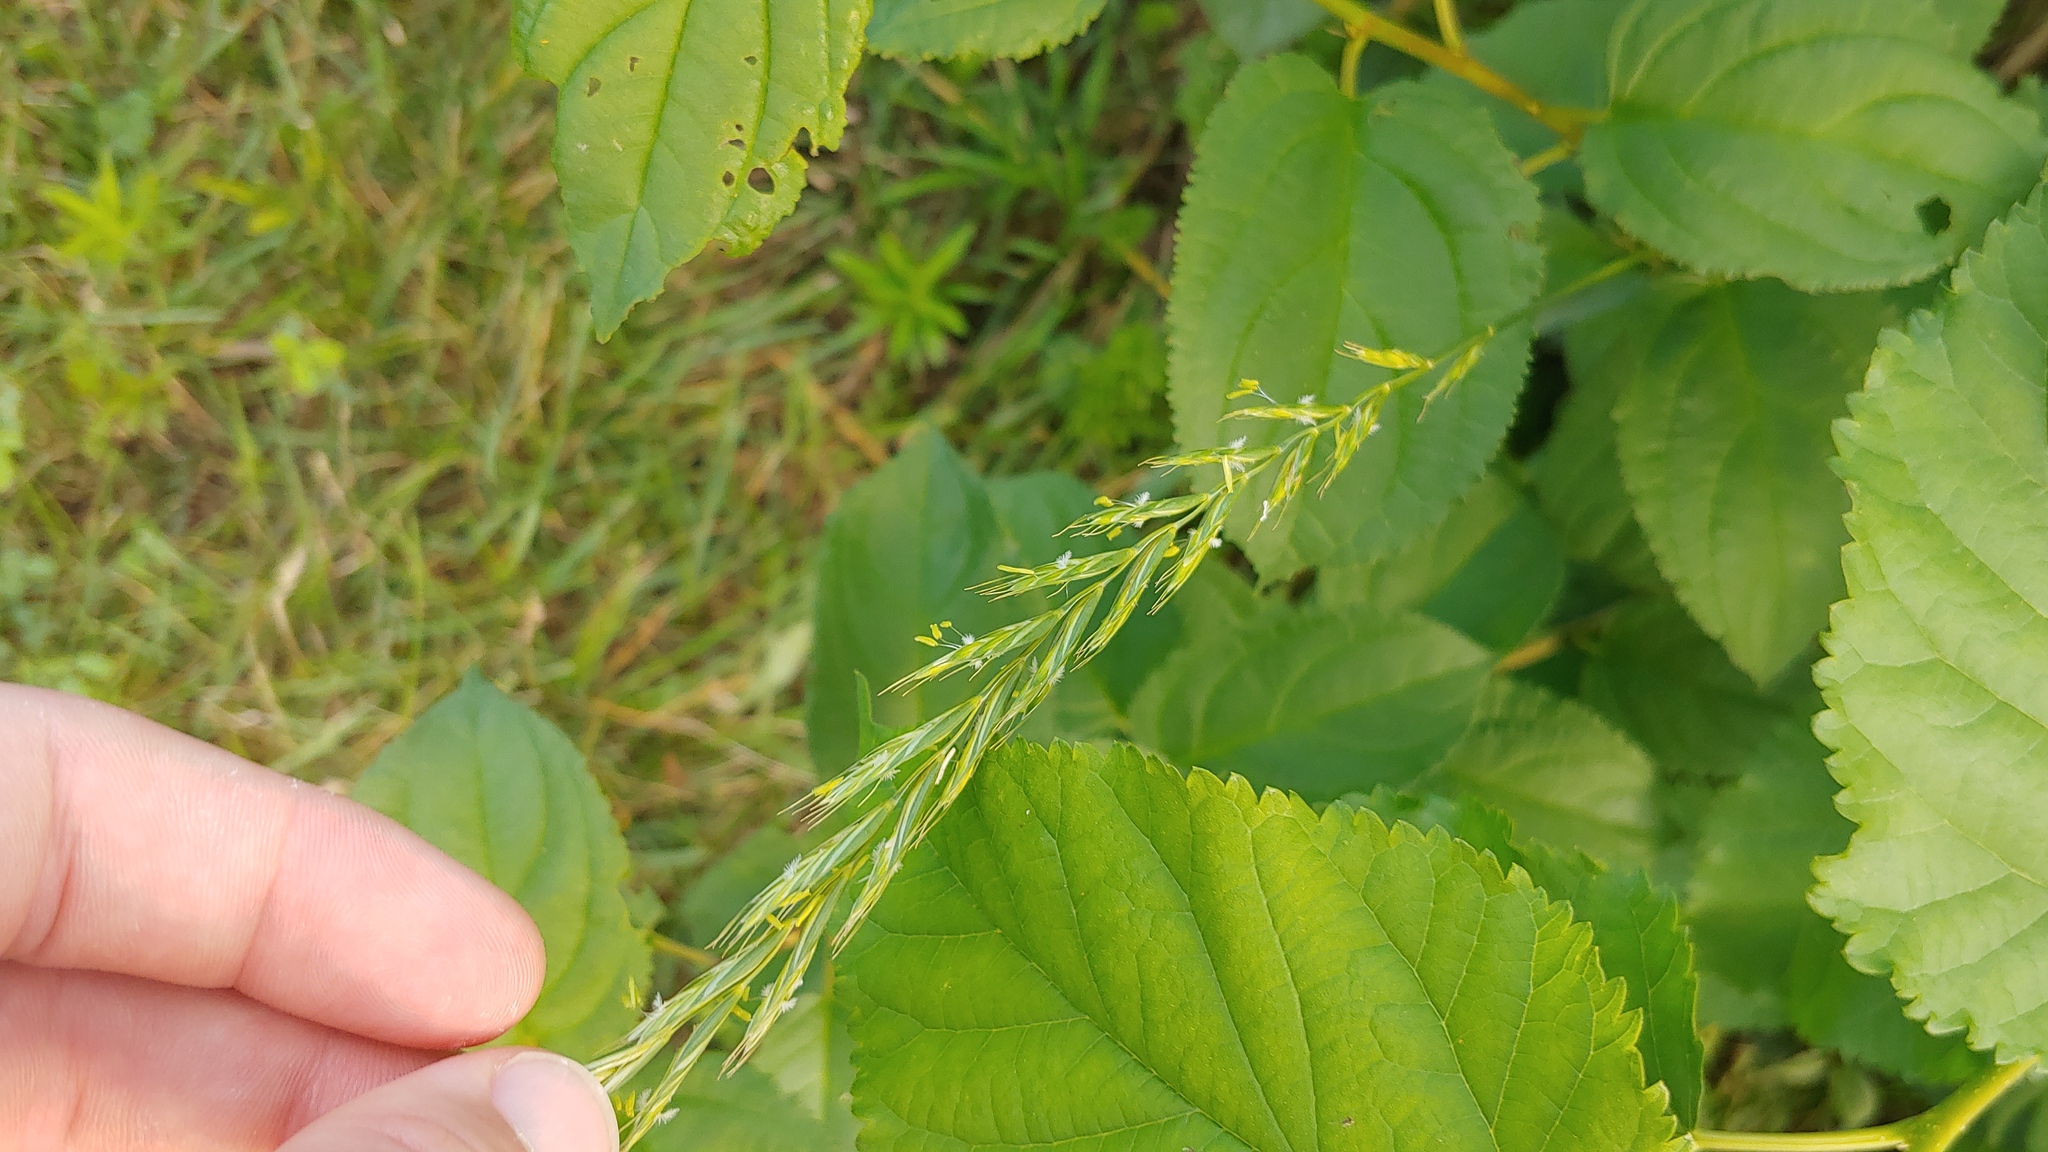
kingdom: Plantae
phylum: Tracheophyta
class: Liliopsida
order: Poales
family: Poaceae
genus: Elymus
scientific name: Elymus repens
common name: Quackgrass
